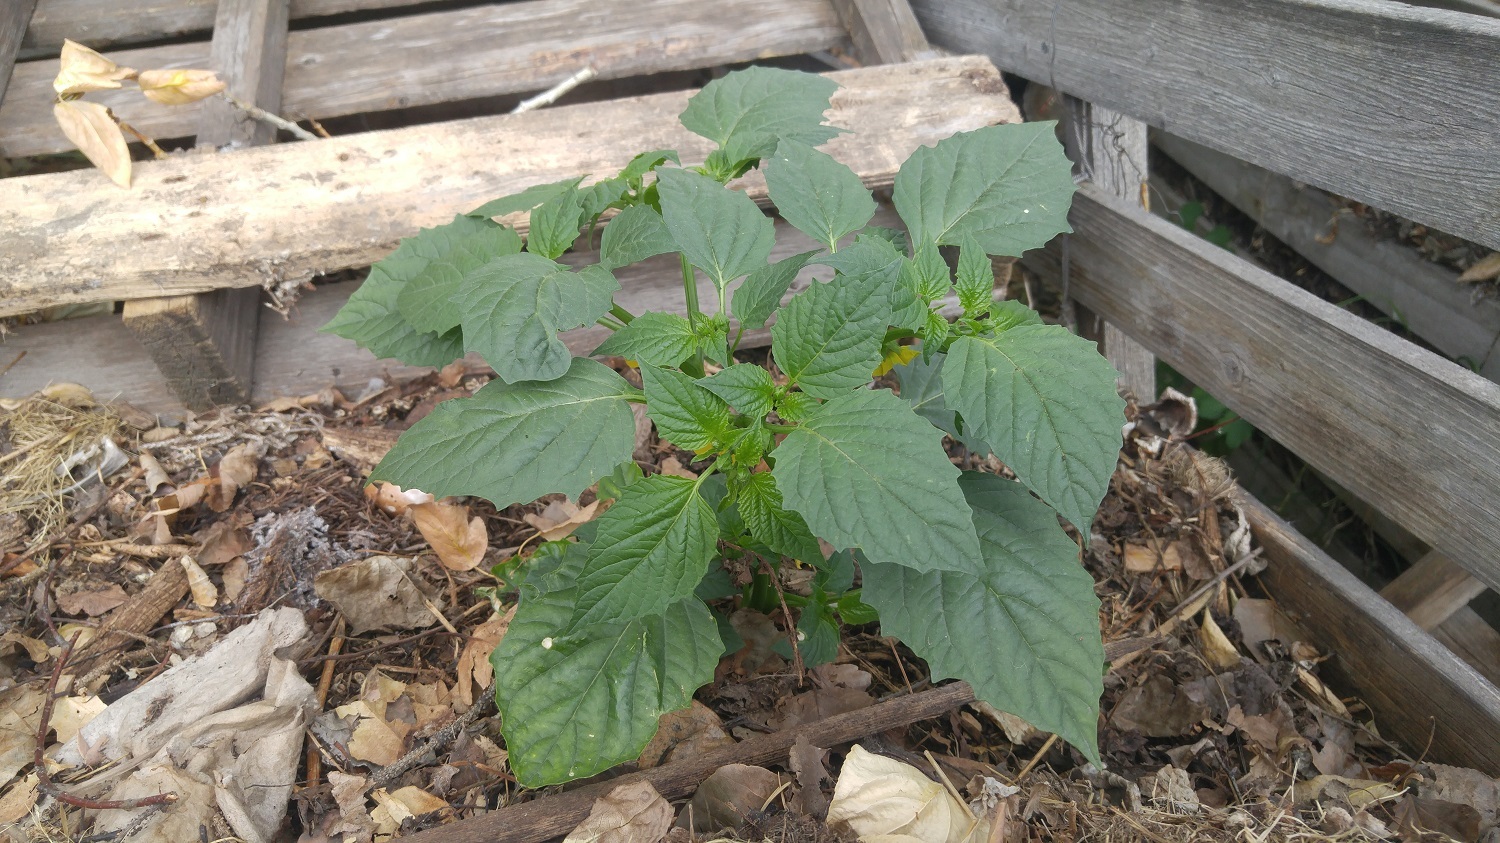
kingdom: Plantae
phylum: Tracheophyta
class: Magnoliopsida
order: Solanales
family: Solanaceae
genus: Physalis
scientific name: Physalis philadelphica
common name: Husk-tomato
